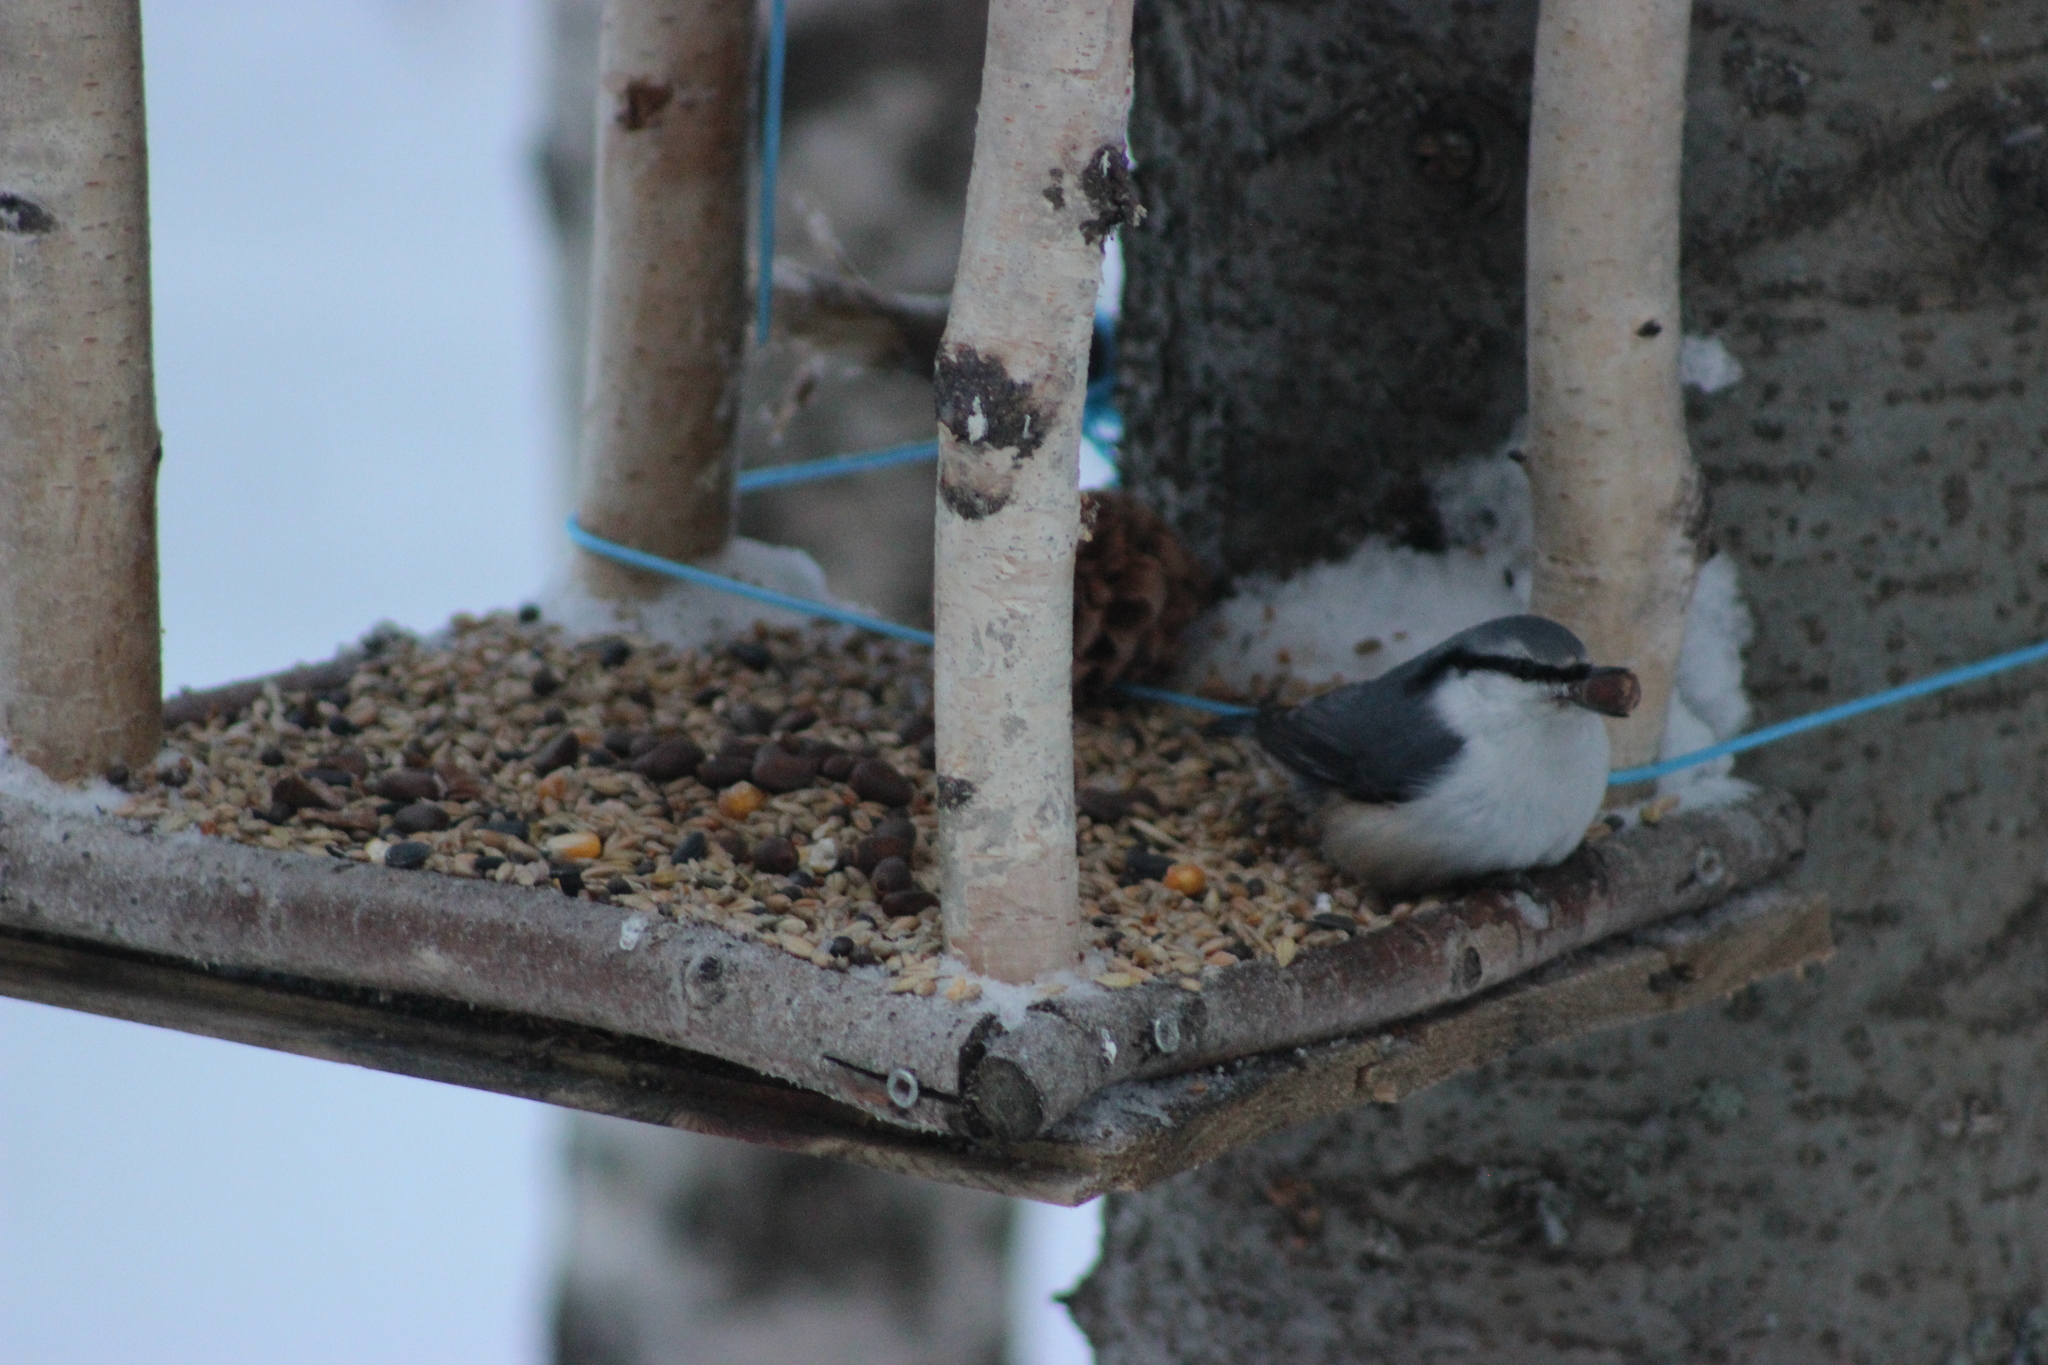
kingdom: Animalia
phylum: Chordata
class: Aves
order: Passeriformes
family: Sittidae
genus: Sitta
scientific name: Sitta europaea
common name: Eurasian nuthatch
